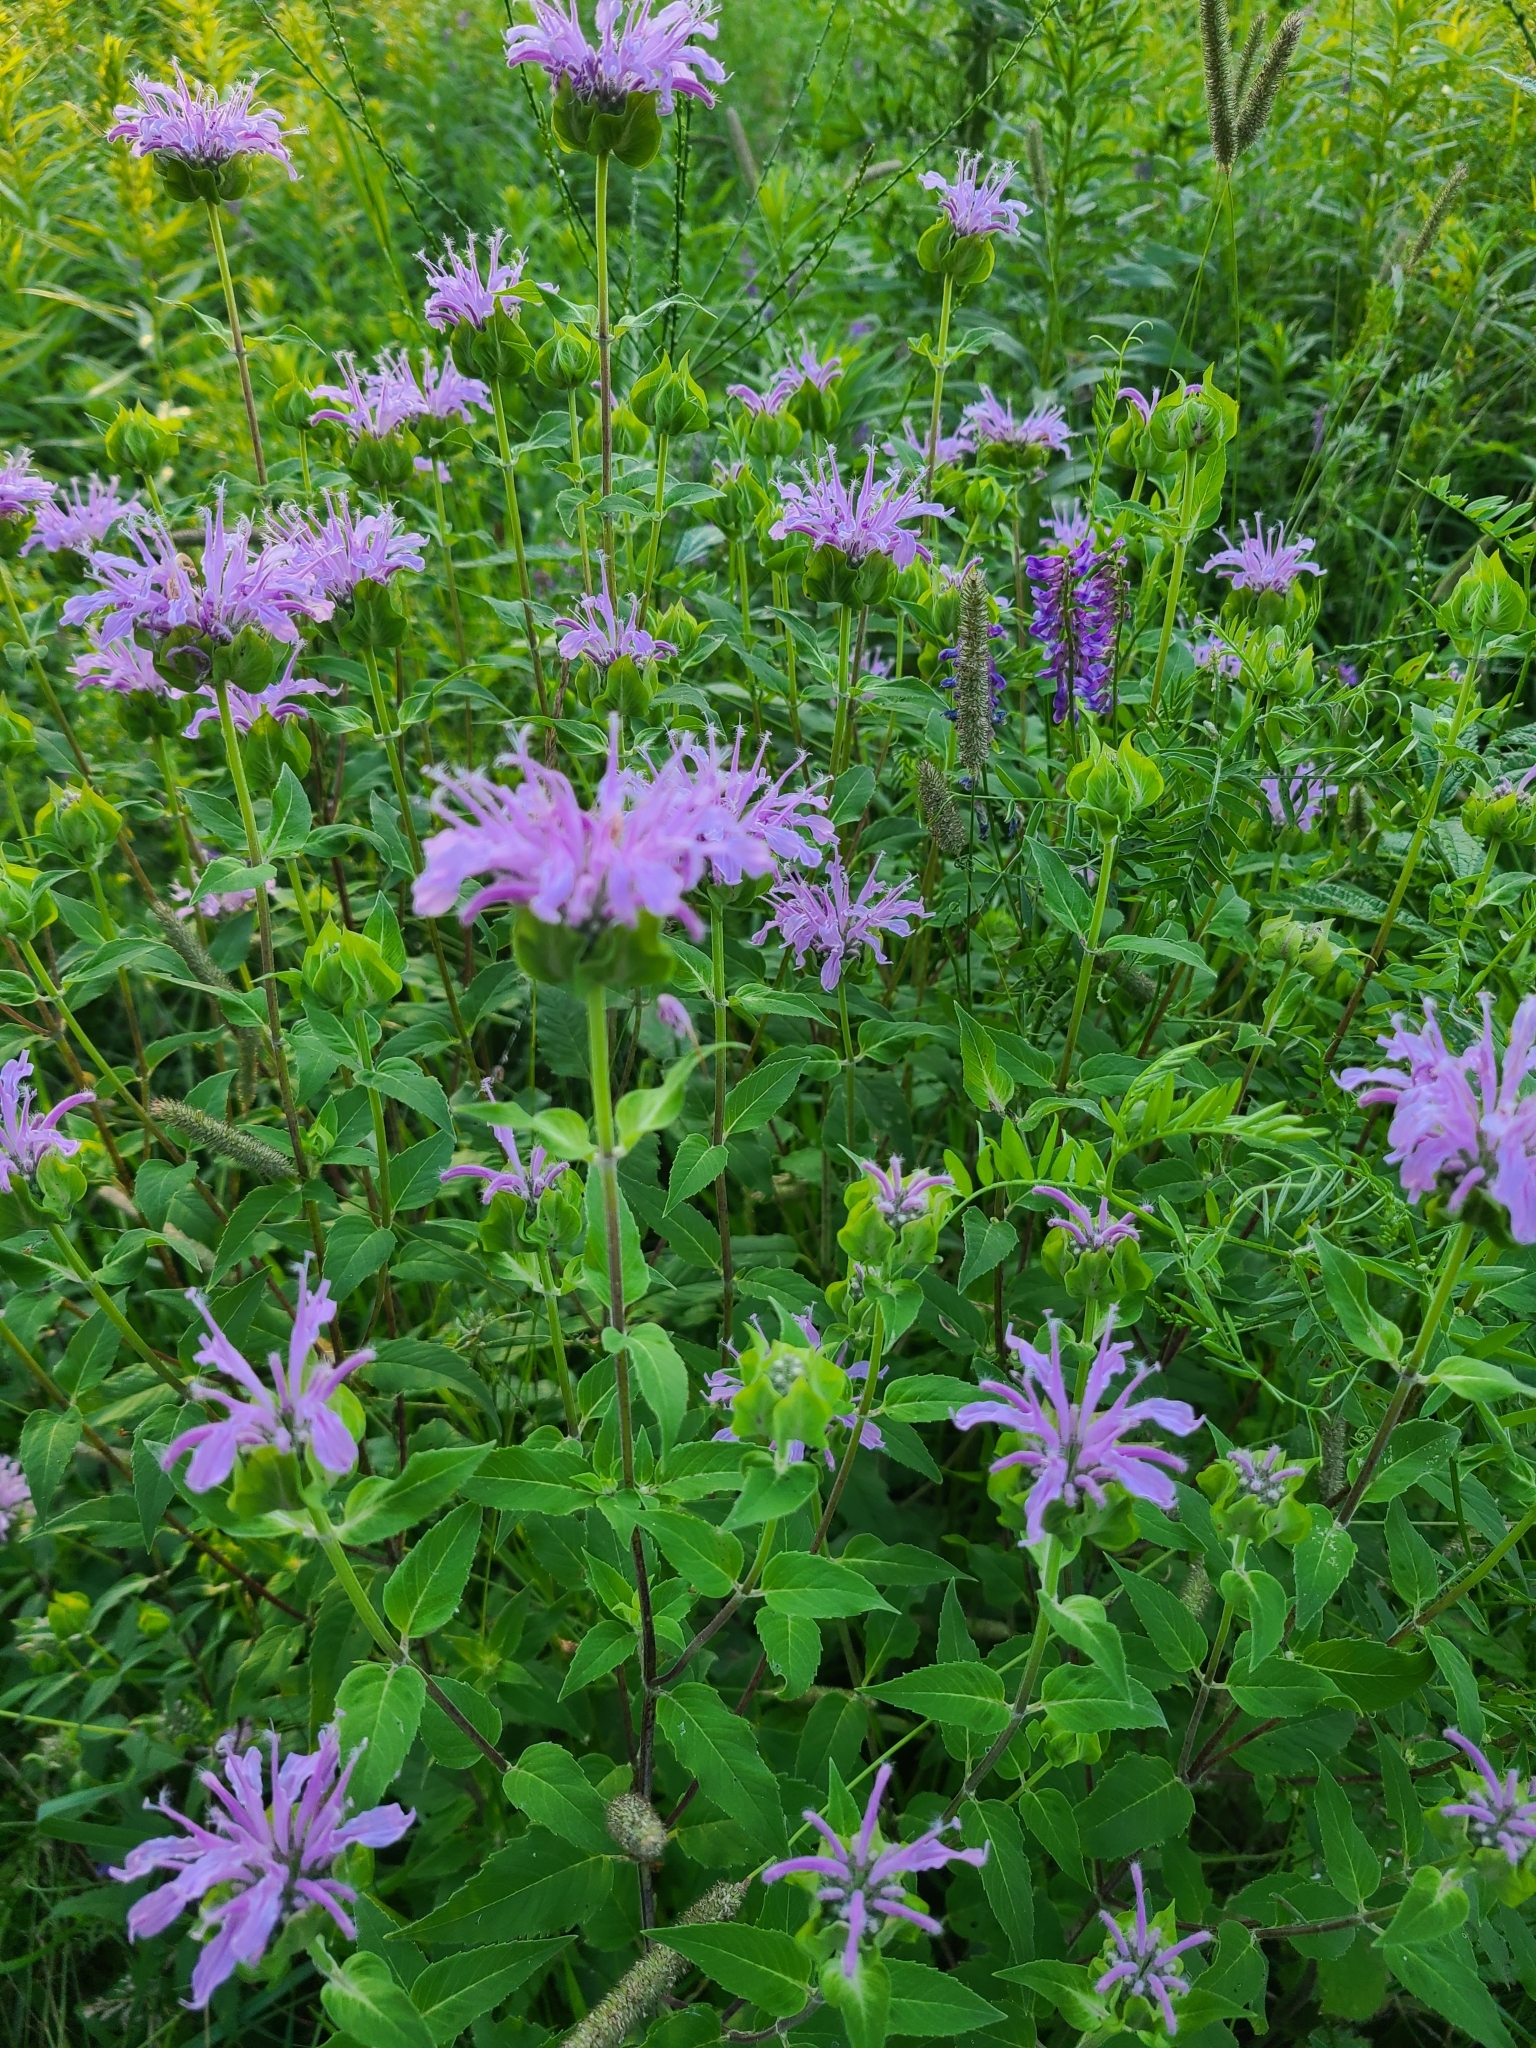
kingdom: Plantae
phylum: Tracheophyta
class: Magnoliopsida
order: Lamiales
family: Lamiaceae
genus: Monarda
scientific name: Monarda fistulosa
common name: Purple beebalm
